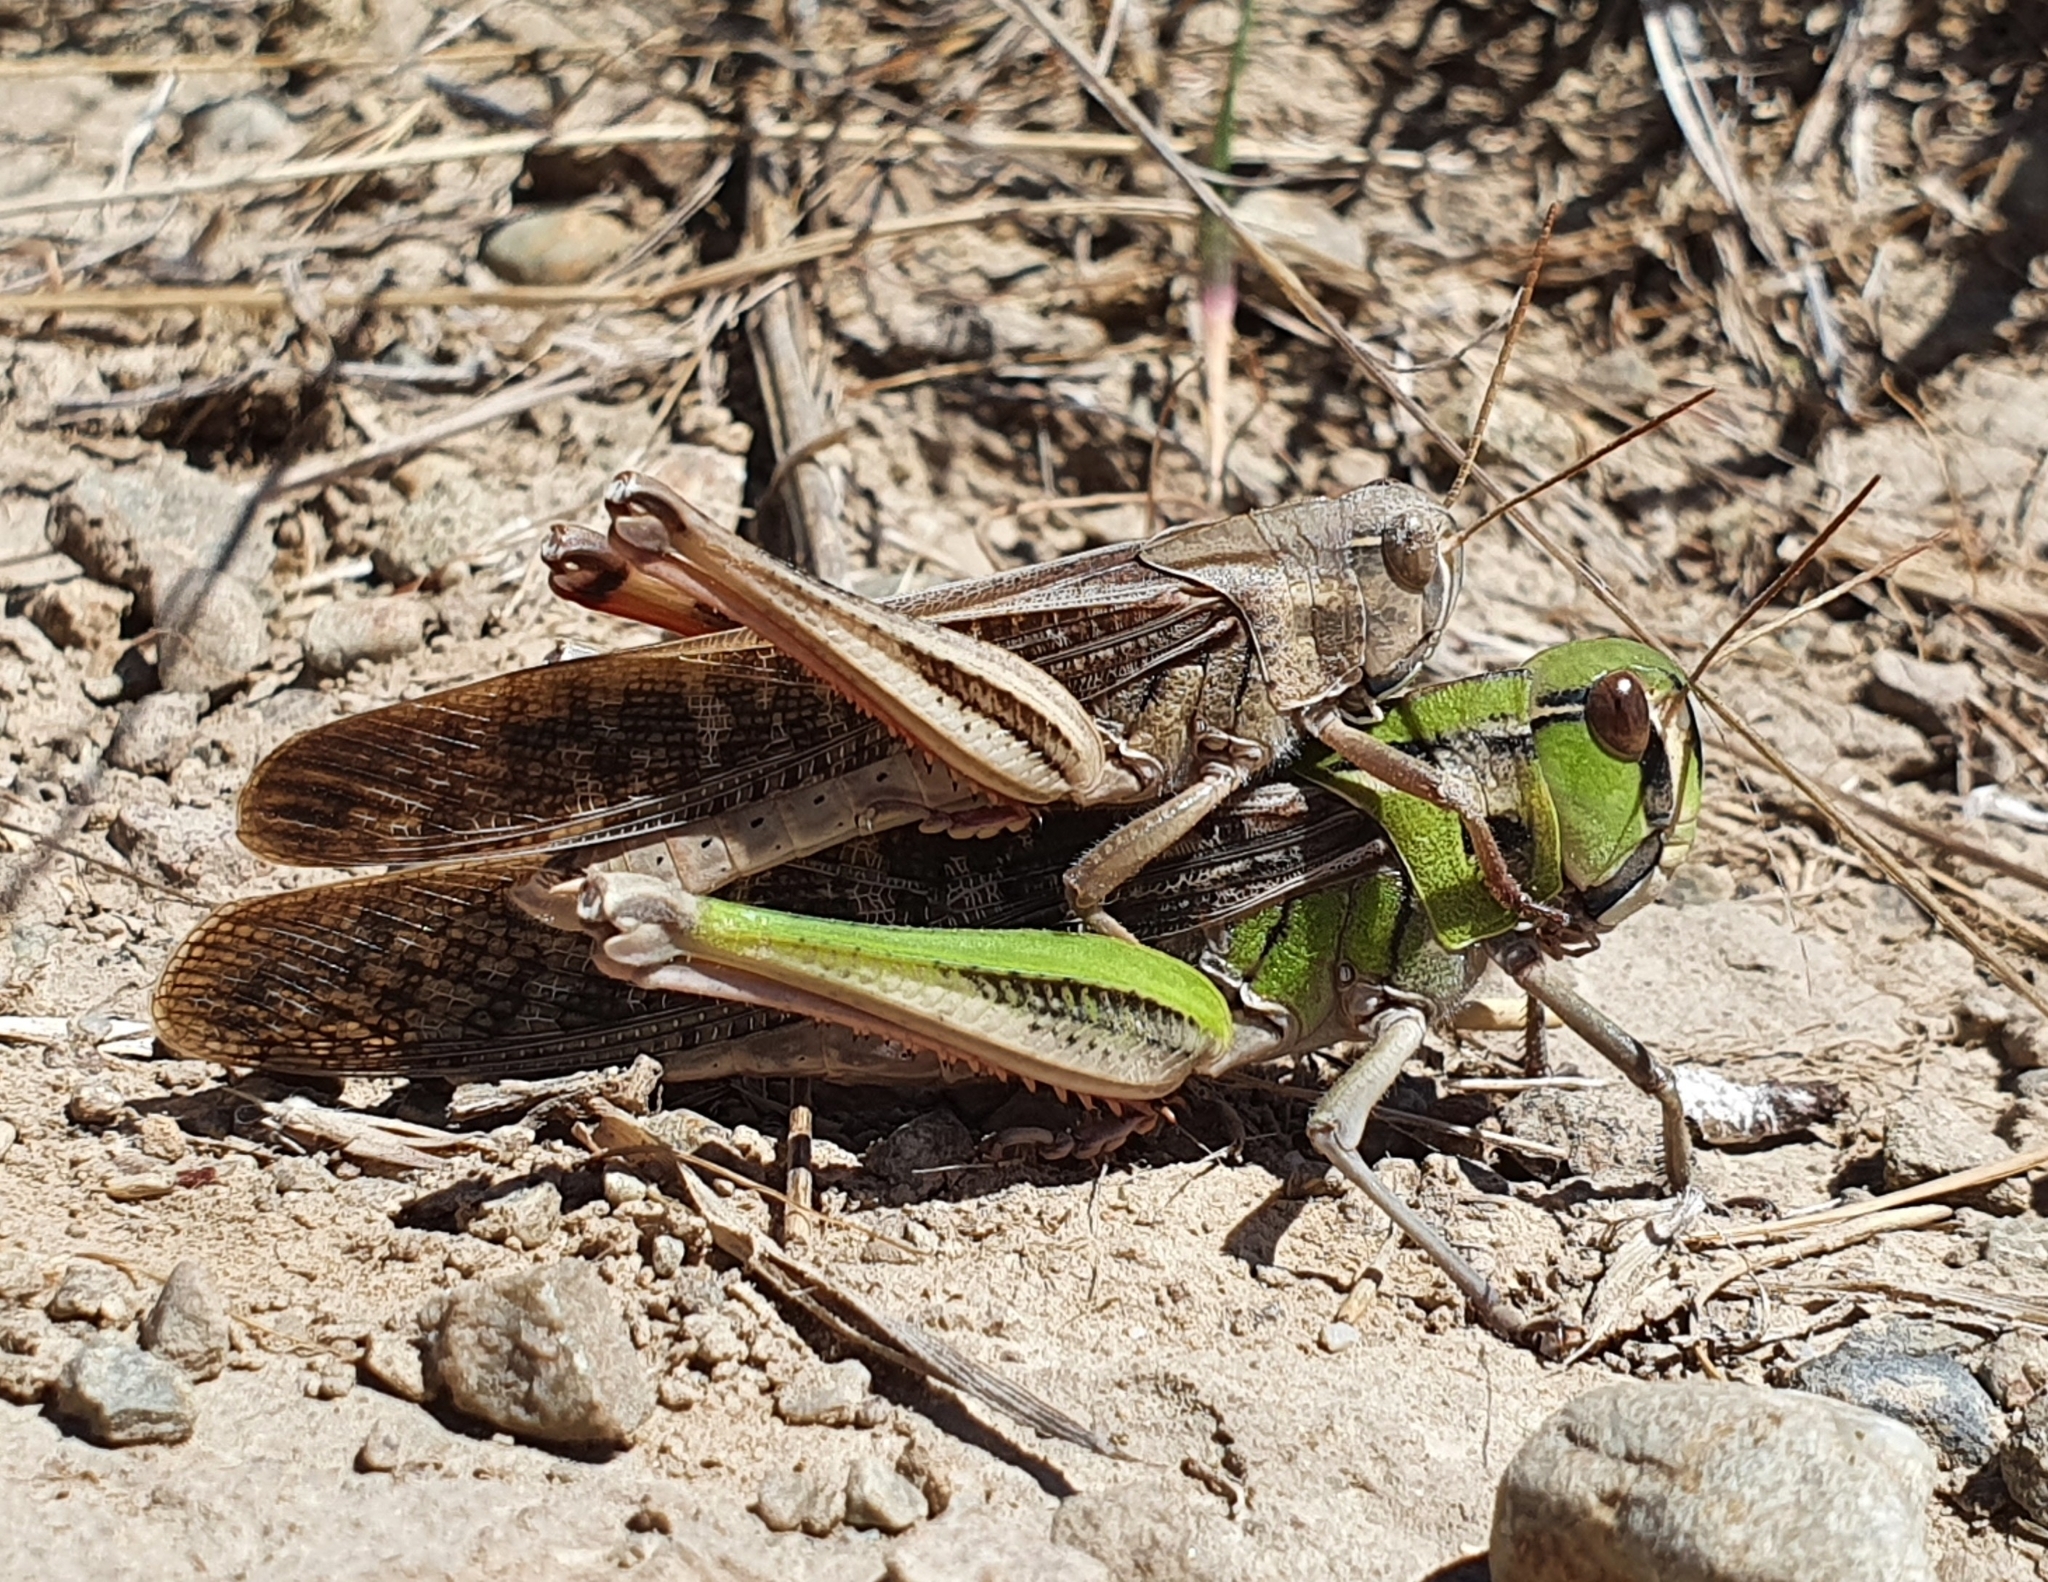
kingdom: Animalia
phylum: Arthropoda
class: Insecta
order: Orthoptera
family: Acrididae
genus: Locusta
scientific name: Locusta migratoria
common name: Migratory locust
